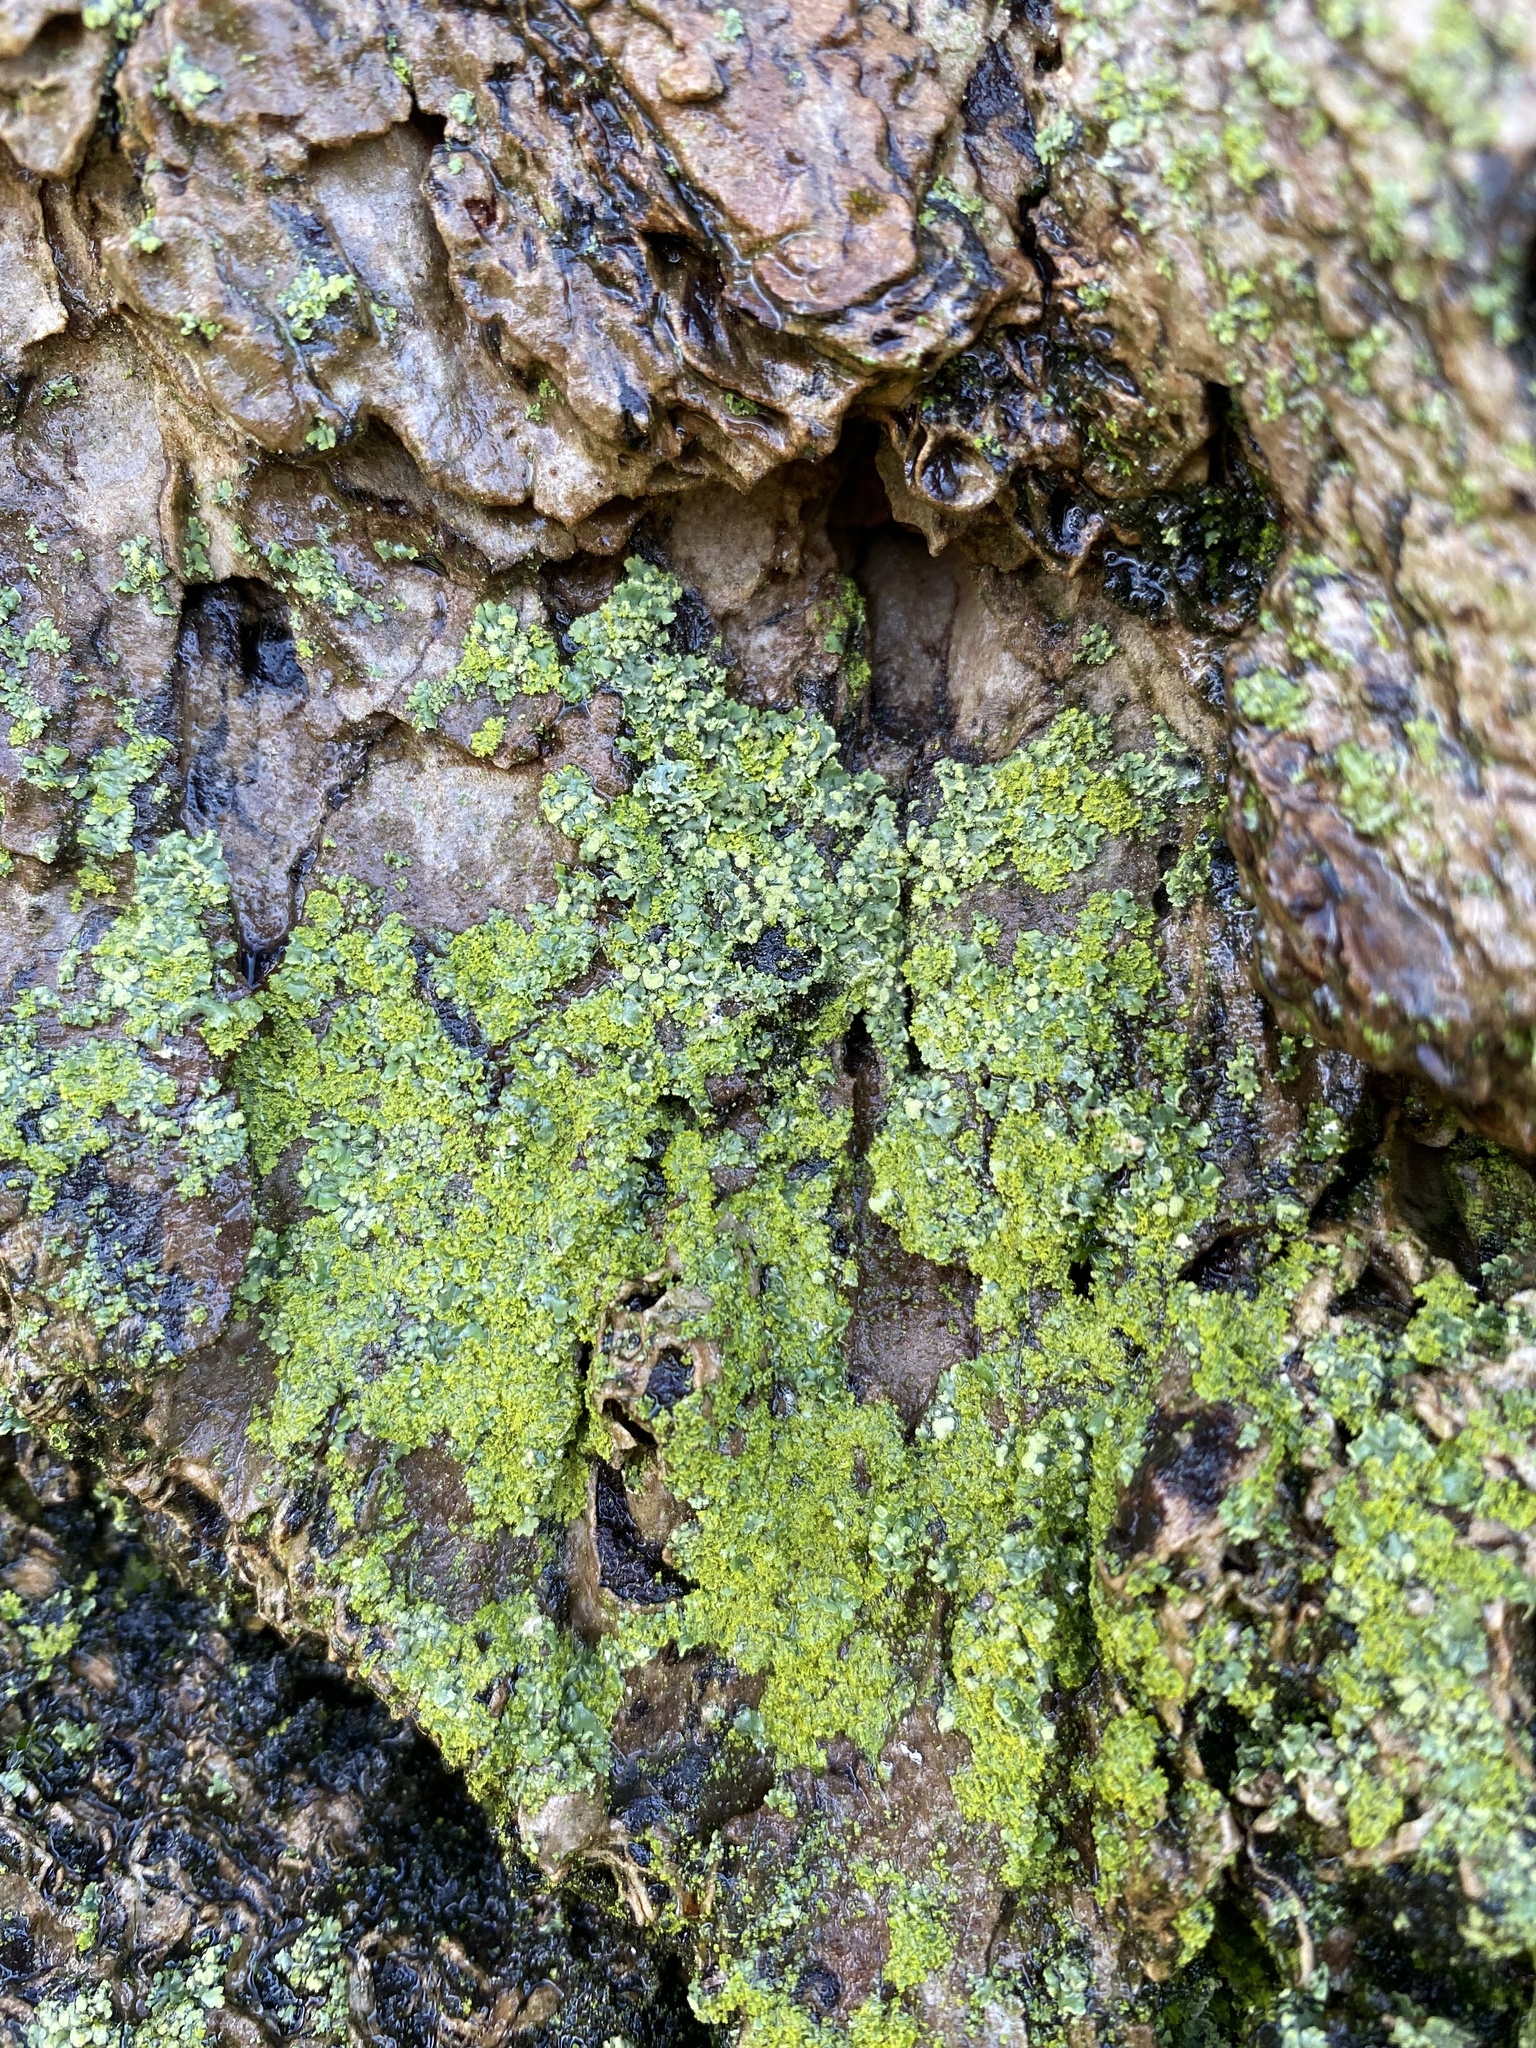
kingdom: Fungi
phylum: Ascomycota
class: Lecanoromycetes
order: Caliciales
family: Physciaceae
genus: Physciella
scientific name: Physciella chloantha
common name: Cryptic rosette lichen
